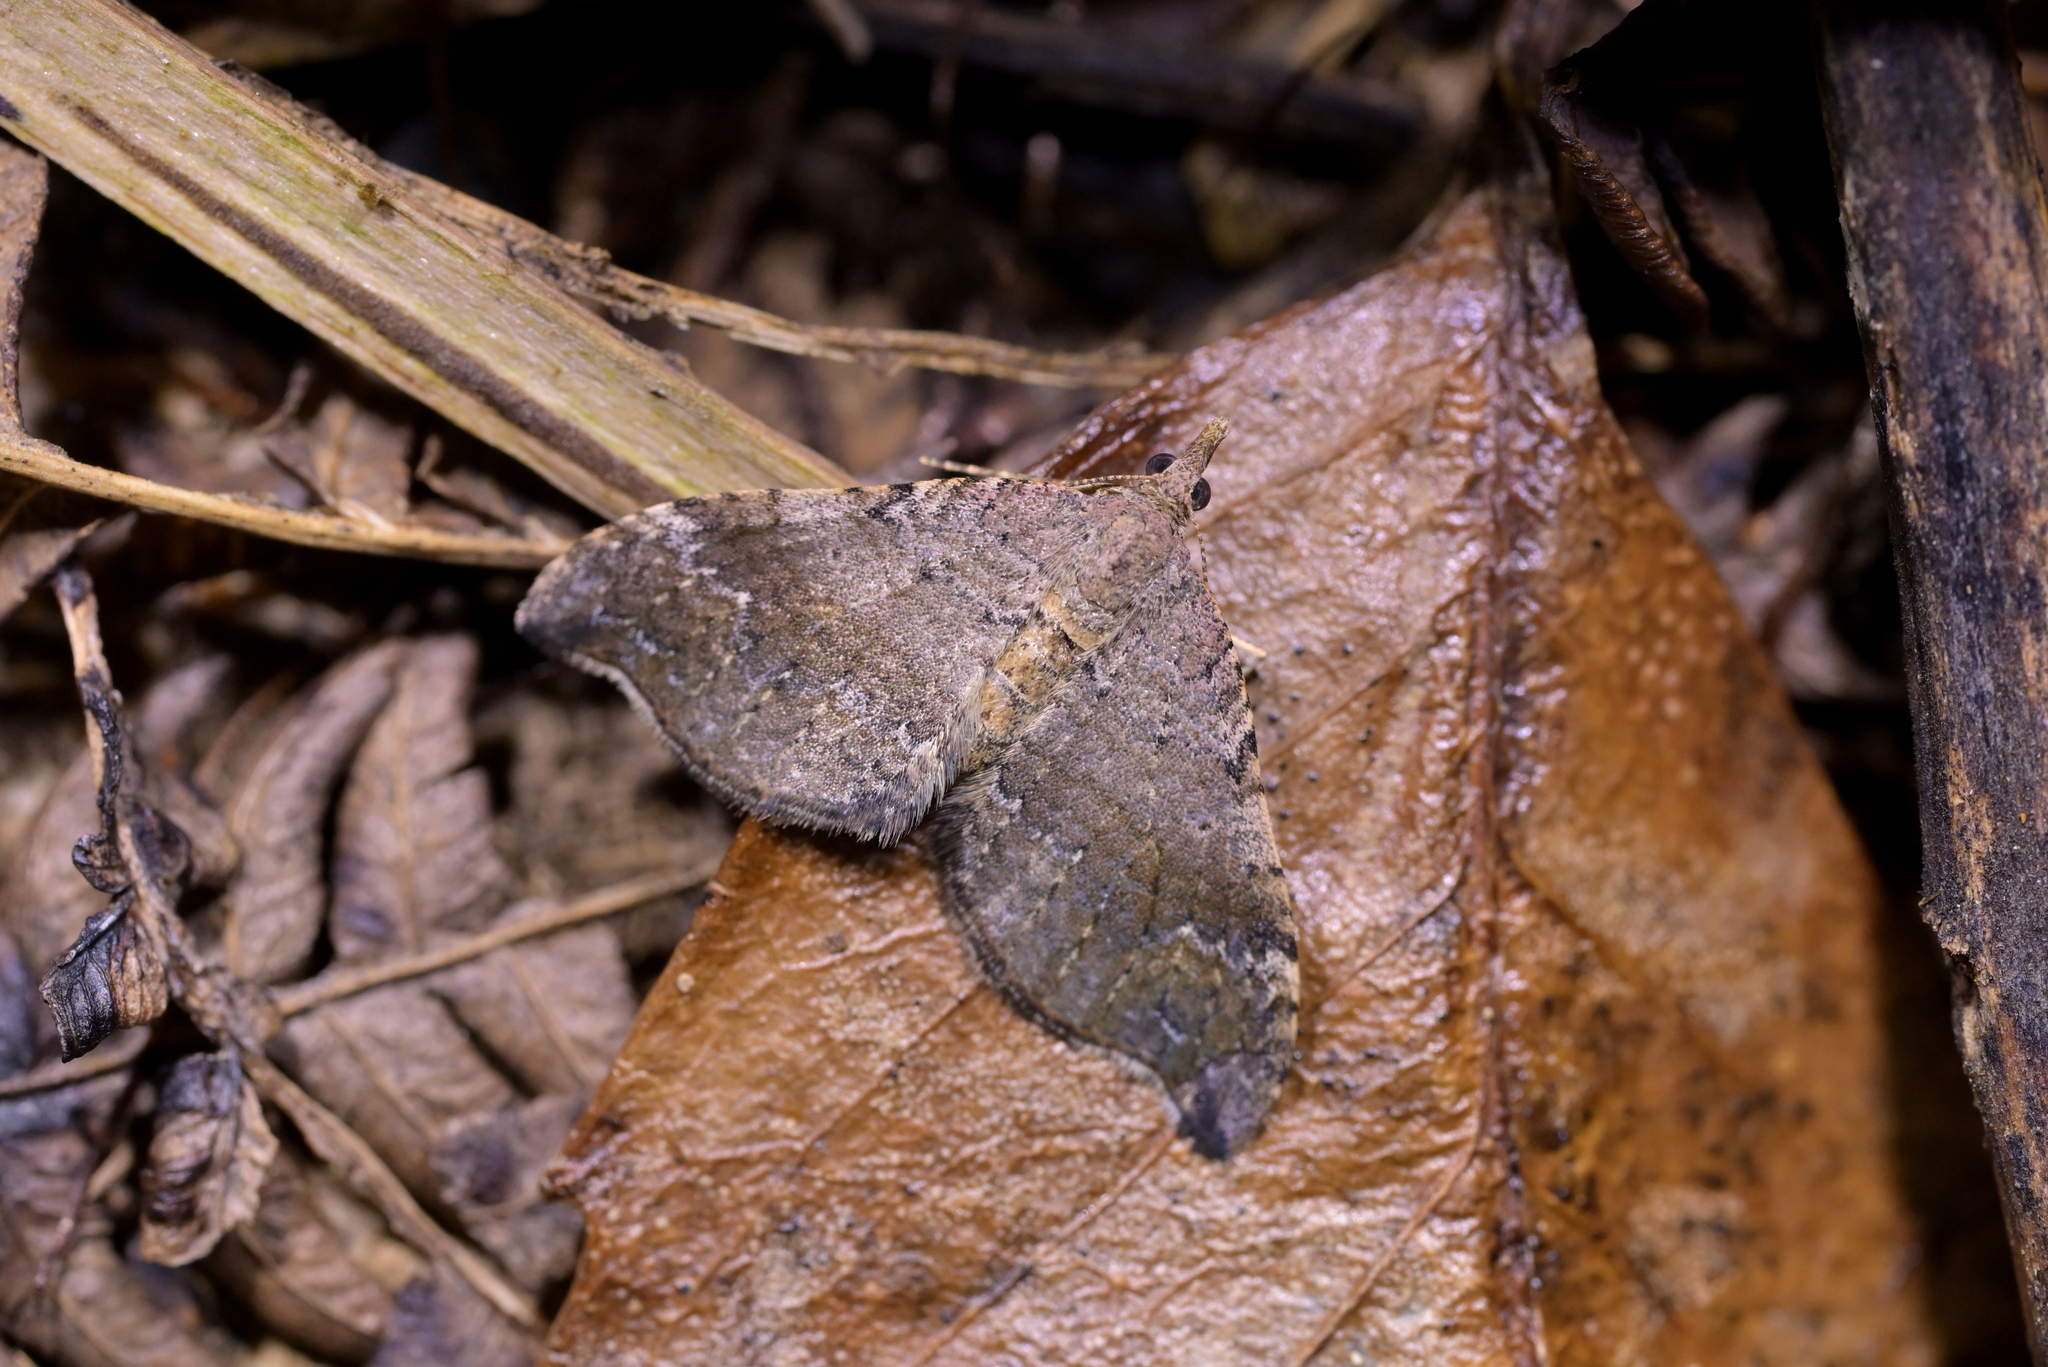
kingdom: Animalia
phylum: Arthropoda
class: Insecta
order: Lepidoptera
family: Geometridae
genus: Homodotis
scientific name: Homodotis megaspilata
